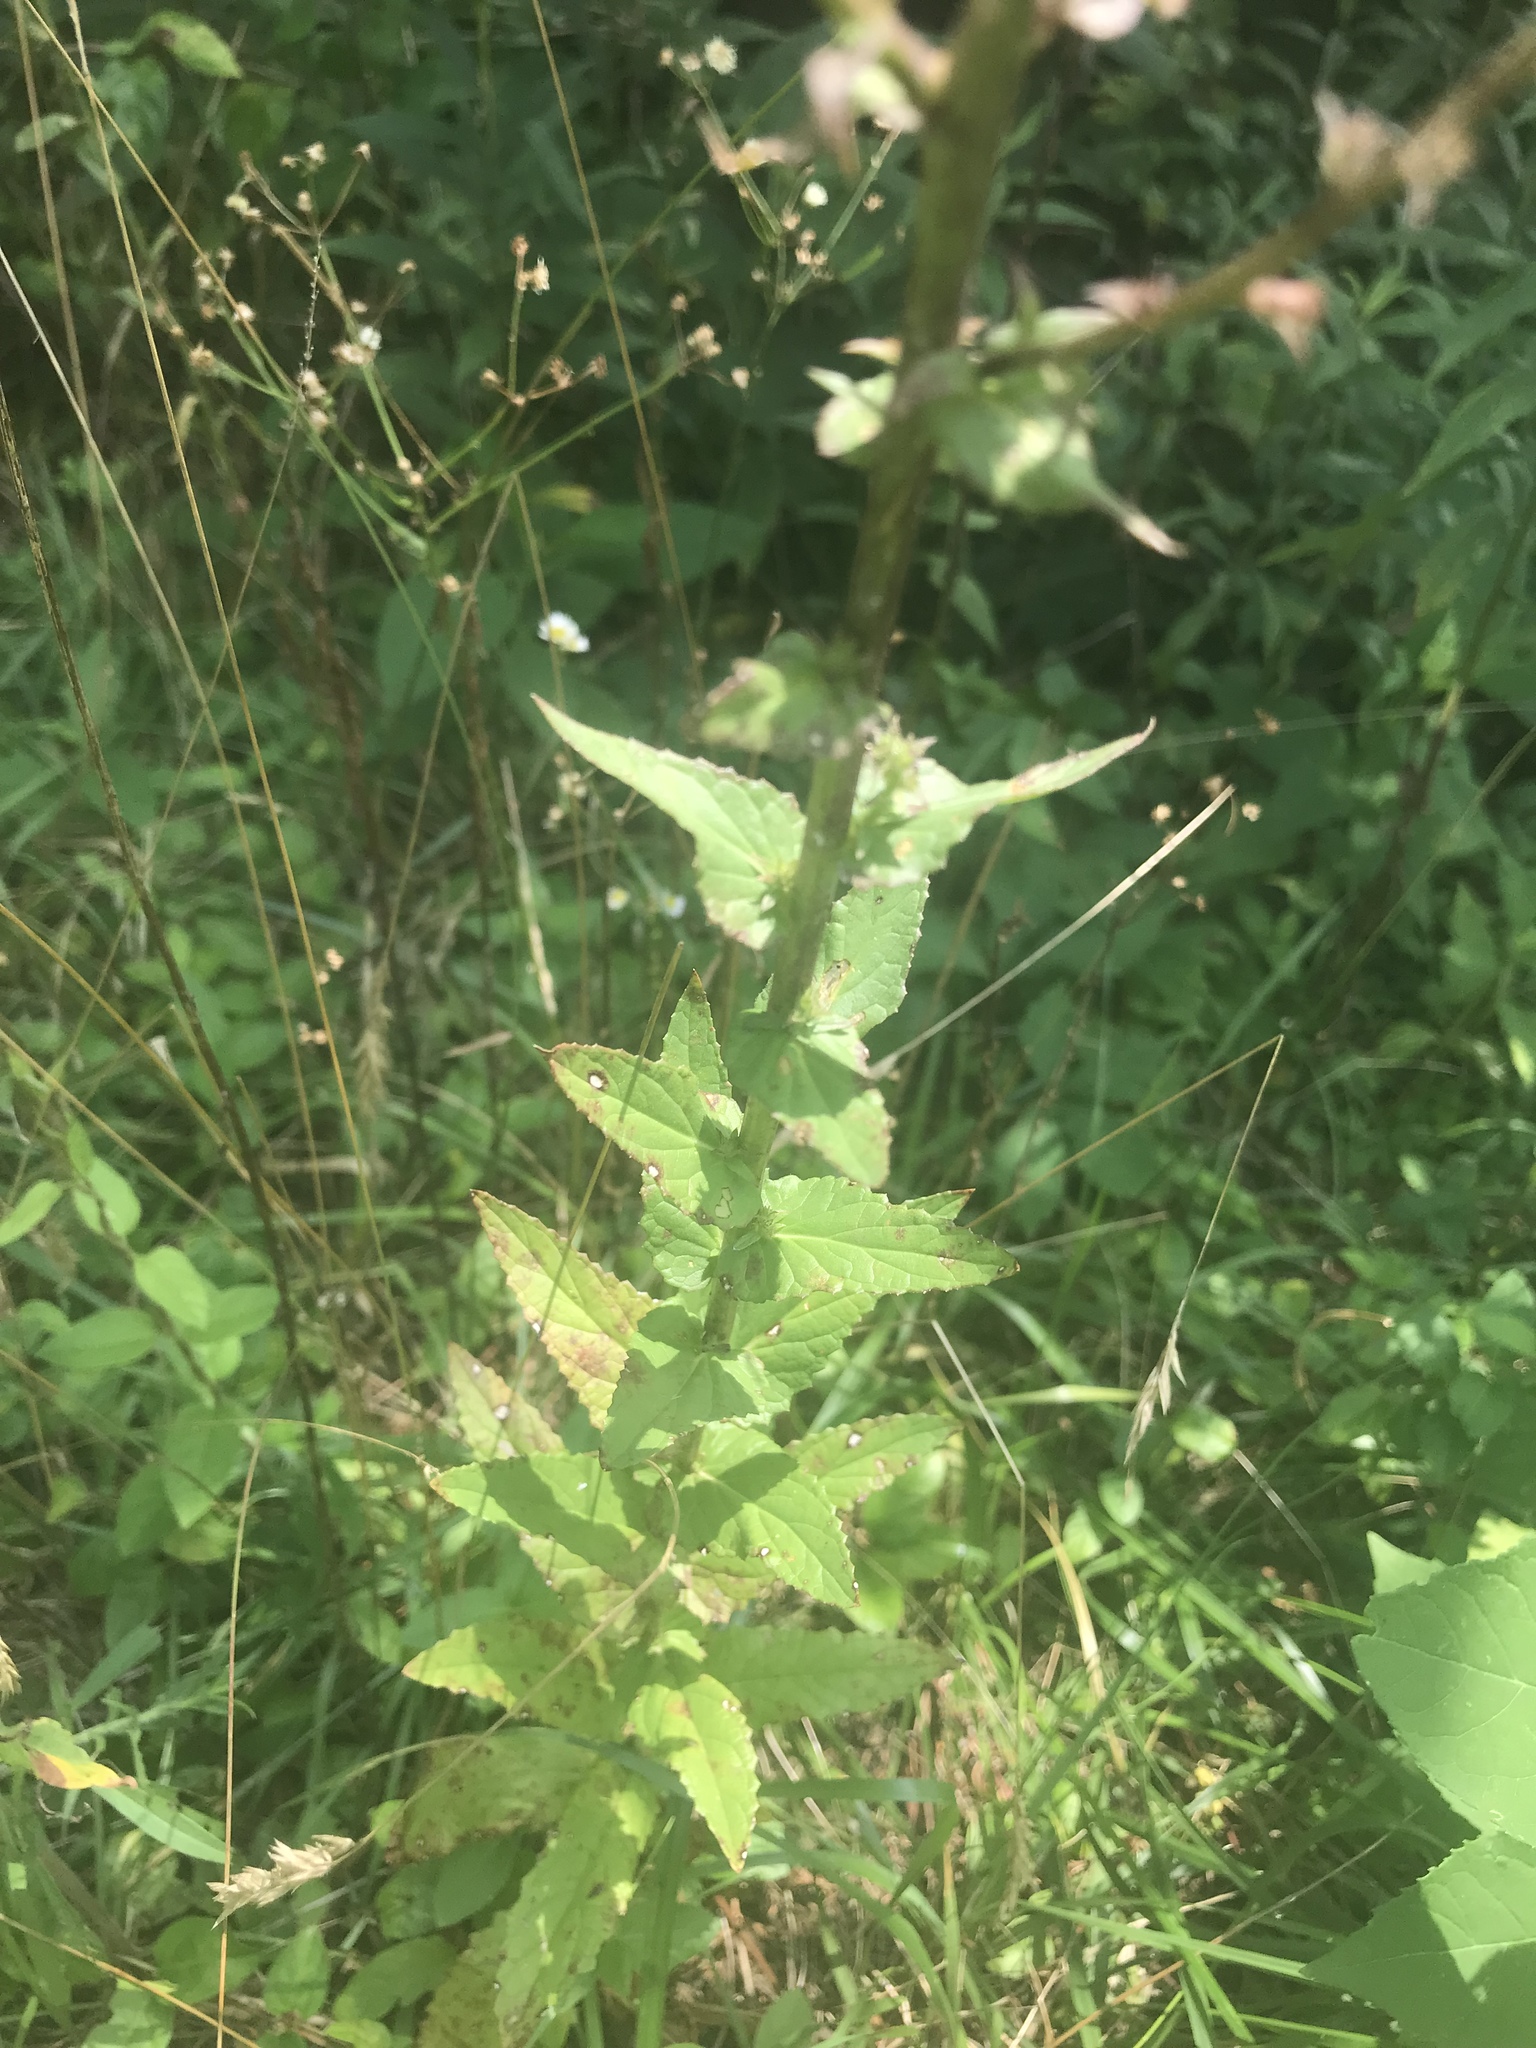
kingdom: Plantae
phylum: Tracheophyta
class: Magnoliopsida
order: Lamiales
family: Scrophulariaceae
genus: Verbascum
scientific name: Verbascum blattaria
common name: Moth mullein
